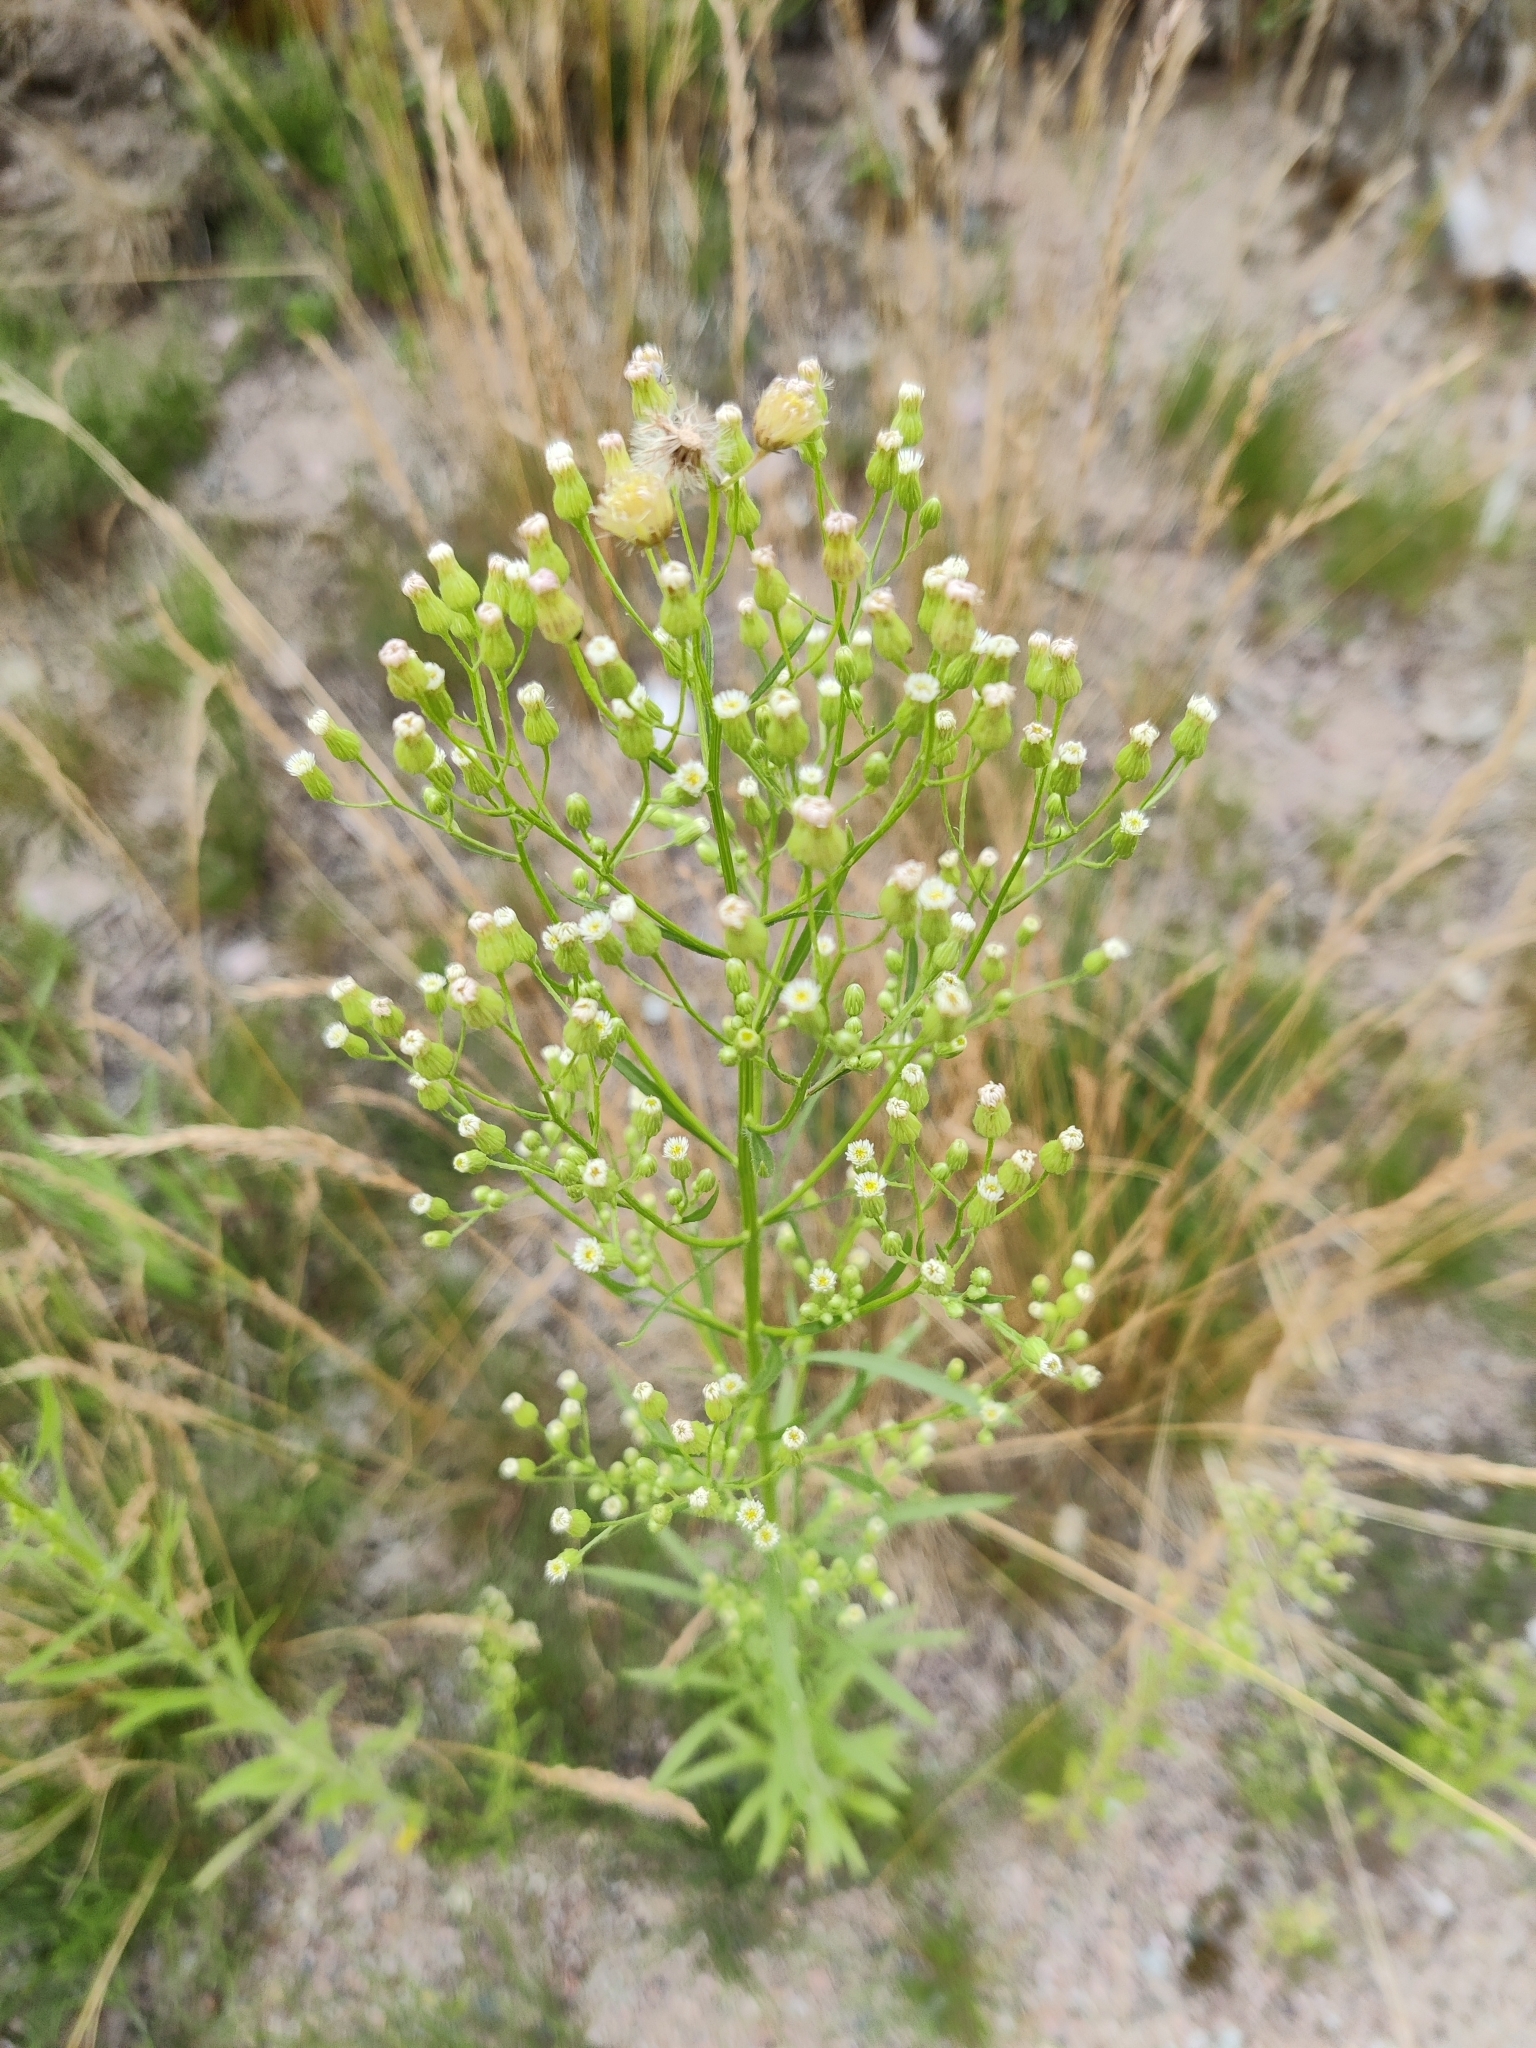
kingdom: Plantae
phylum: Tracheophyta
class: Magnoliopsida
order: Asterales
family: Asteraceae
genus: Erigeron
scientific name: Erigeron canadensis
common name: Canadian fleabane
